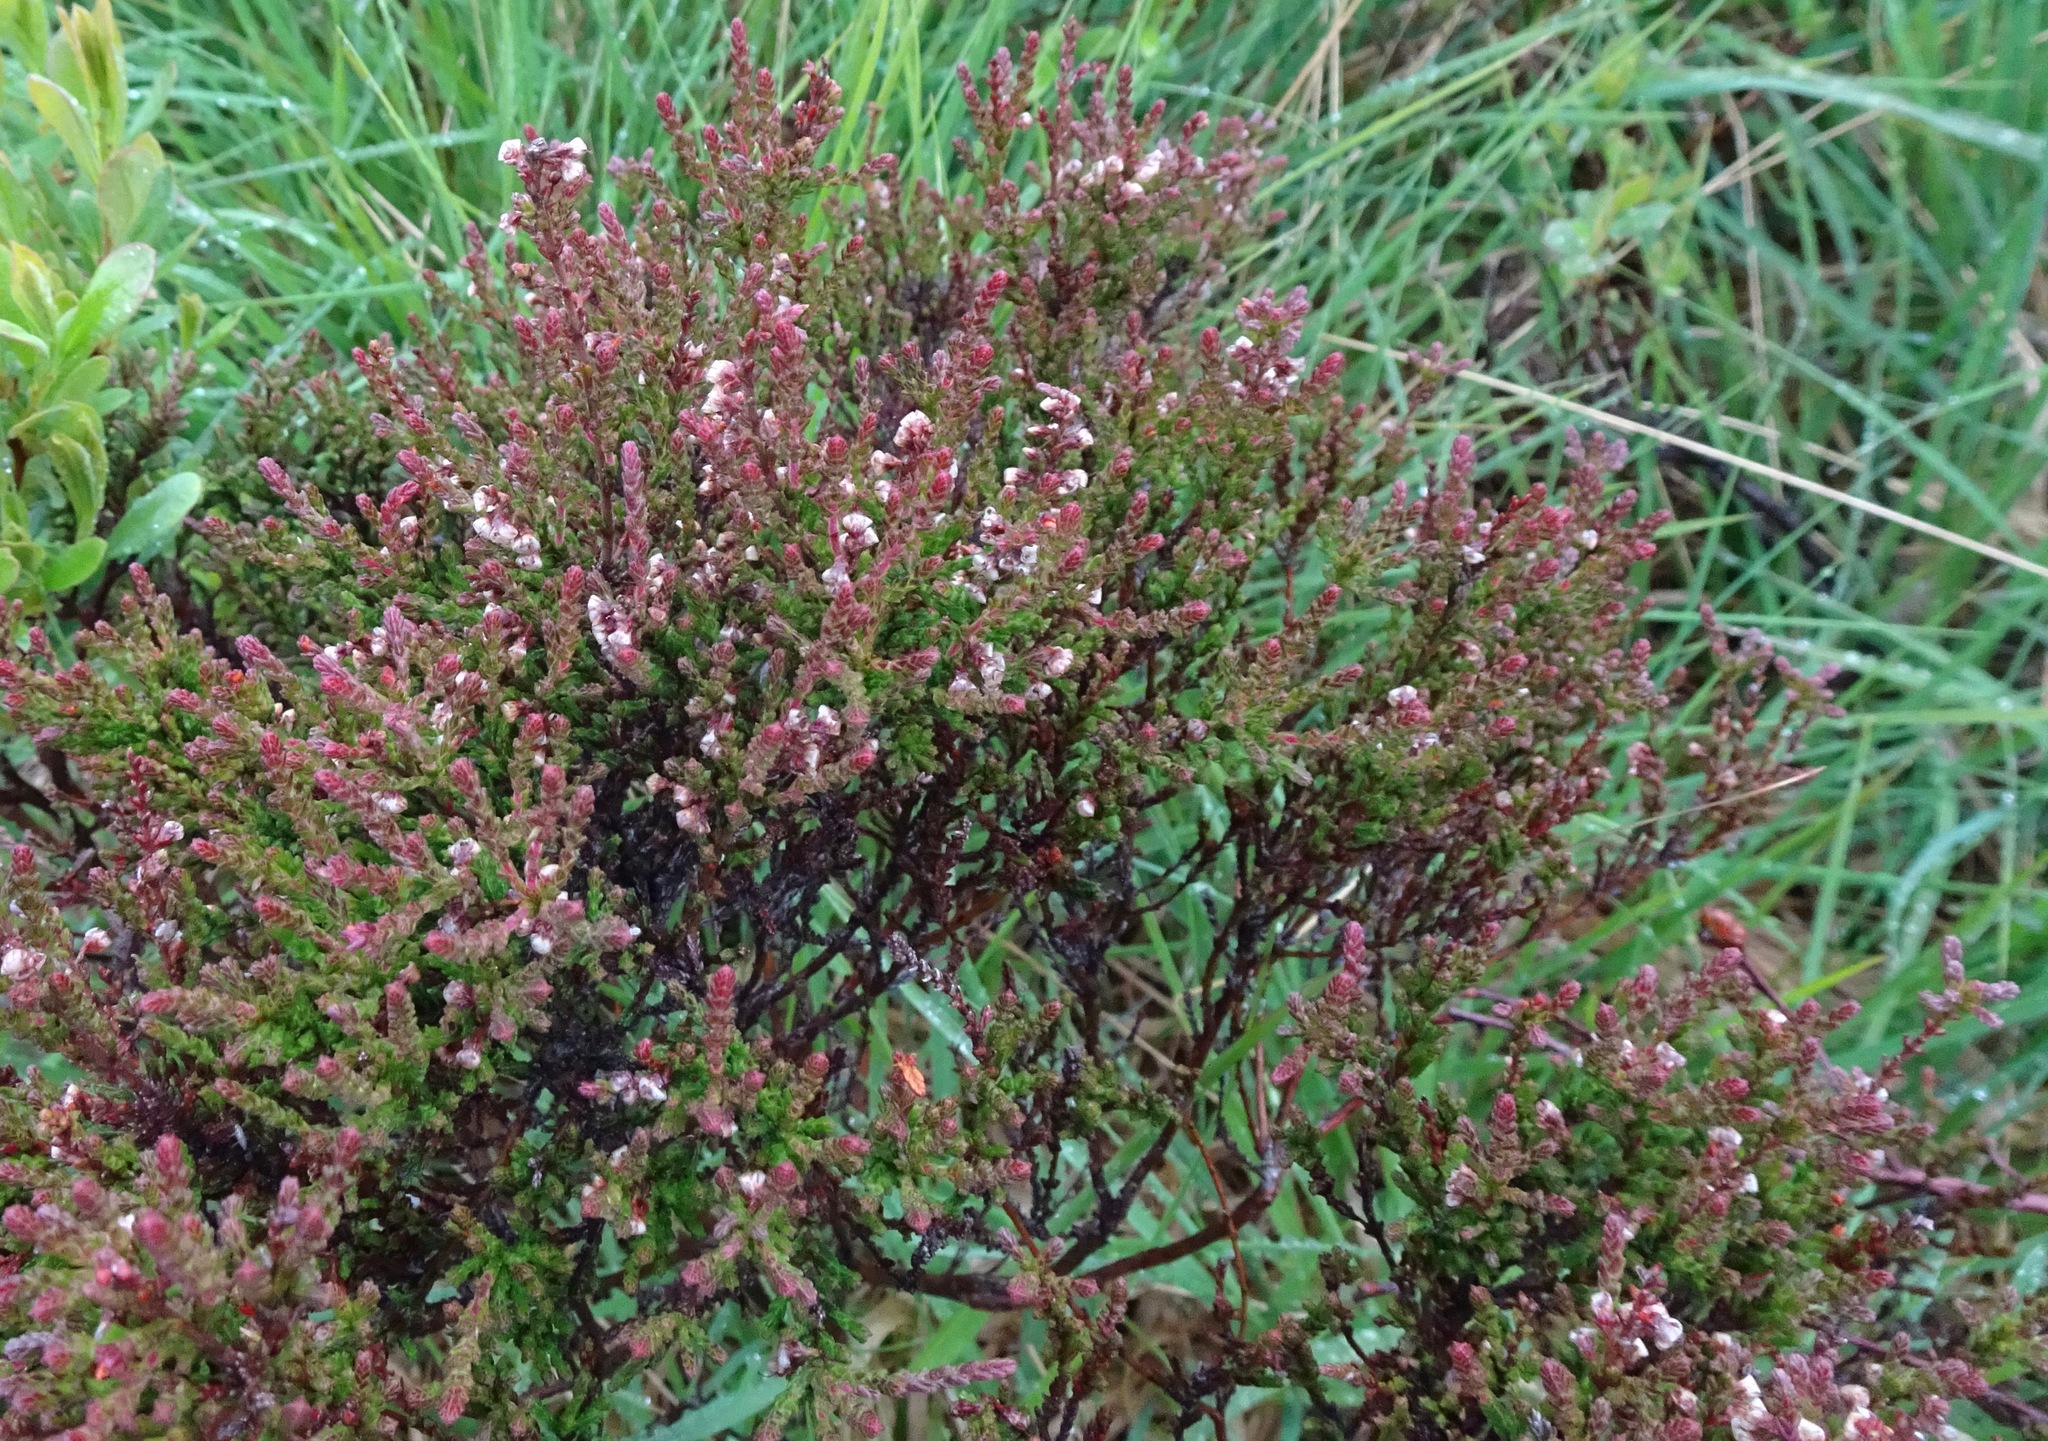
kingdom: Plantae
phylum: Tracheophyta
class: Magnoliopsida
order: Ericales
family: Ericaceae
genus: Calluna
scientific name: Calluna vulgaris
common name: Heather
